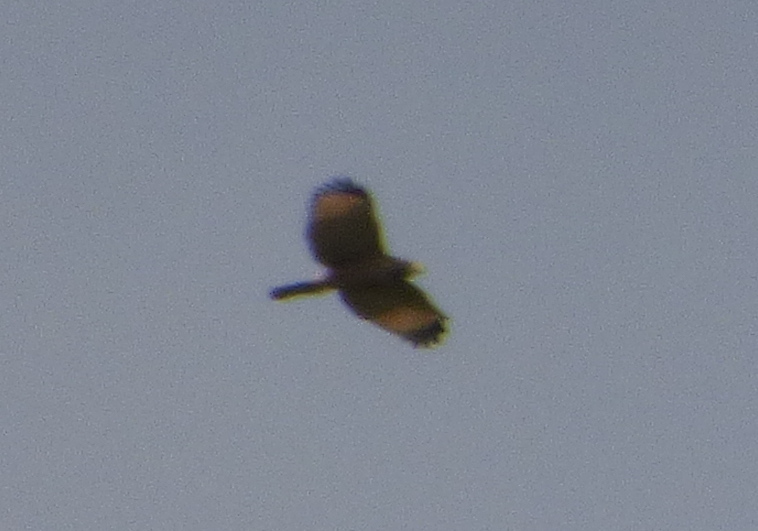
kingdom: Animalia
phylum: Chordata
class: Aves
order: Accipitriformes
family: Accipitridae
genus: Parabuteo
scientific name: Parabuteo unicinctus
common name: Harris's hawk
